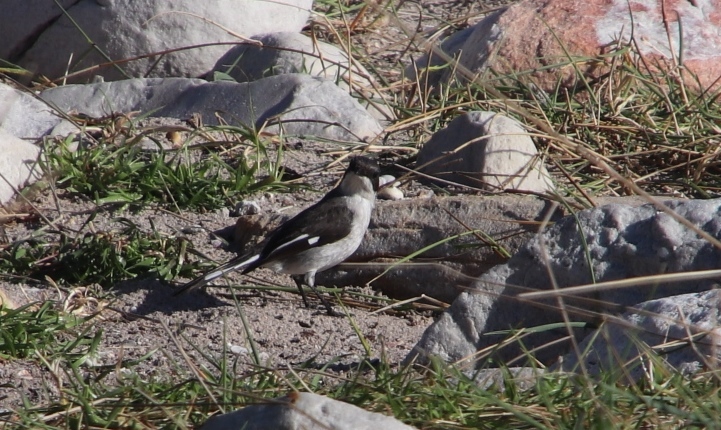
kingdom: Animalia
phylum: Chordata
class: Aves
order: Passeriformes
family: Muscicapidae
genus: Sigelus
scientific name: Sigelus silens
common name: Fiscal flycatcher
